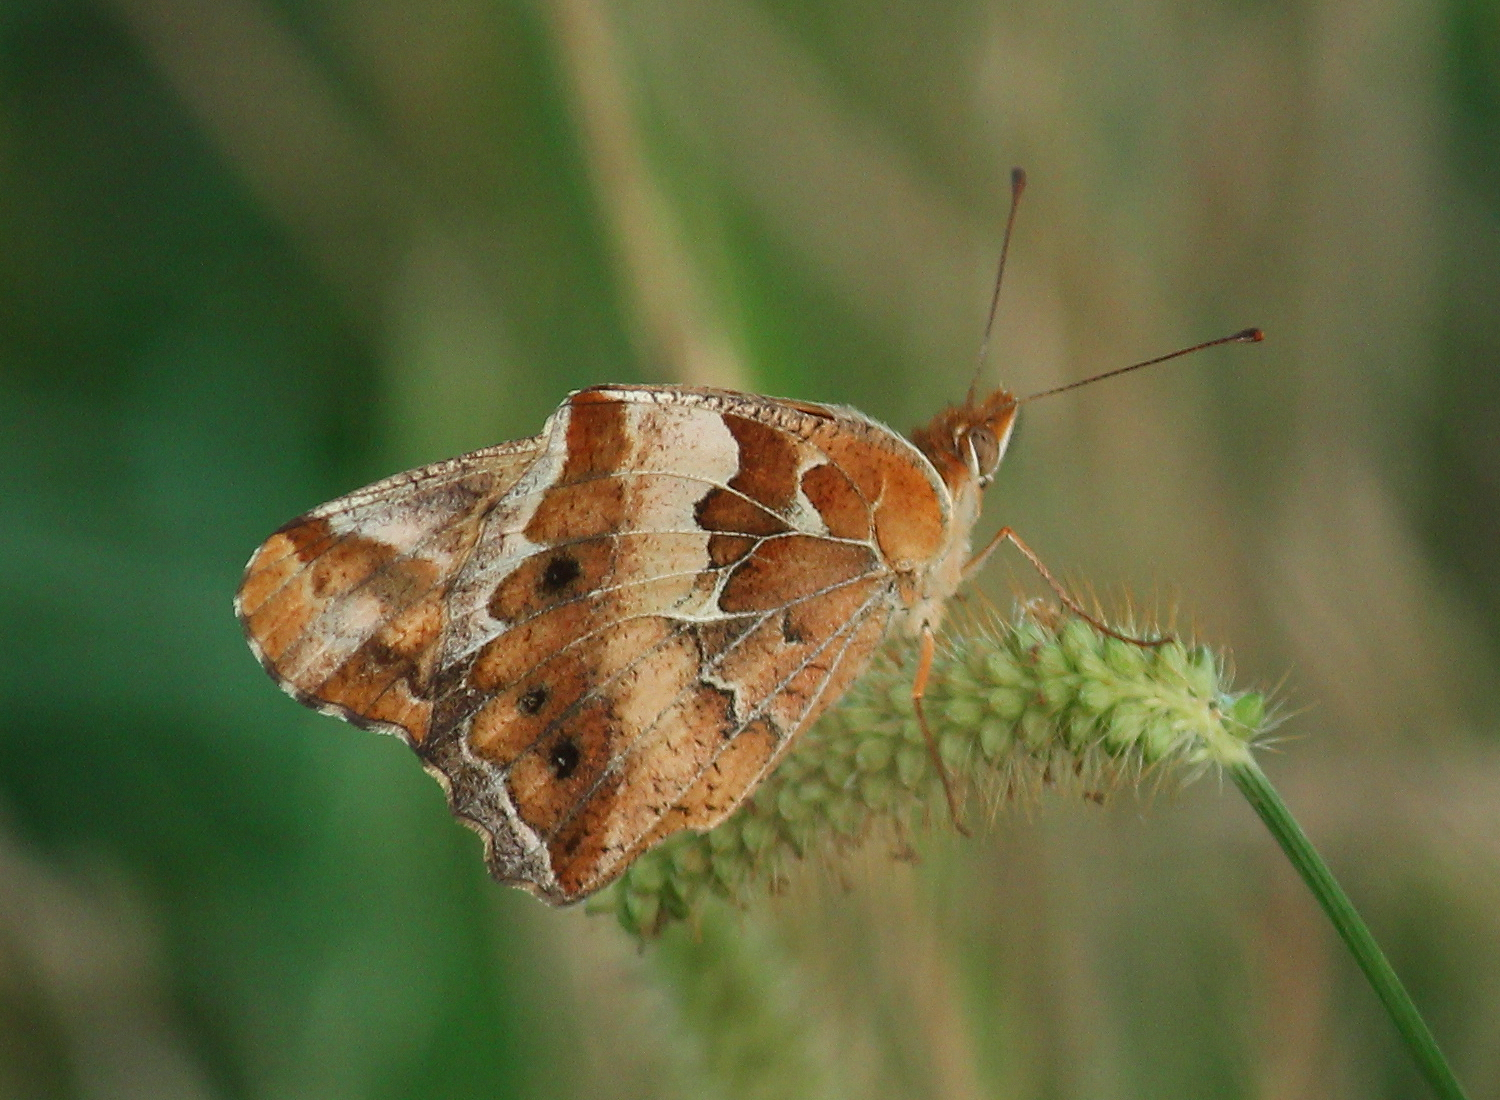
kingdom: Animalia
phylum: Arthropoda
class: Insecta
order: Lepidoptera
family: Nymphalidae
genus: Euptoieta
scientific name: Euptoieta claudia
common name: Variegated fritillary
